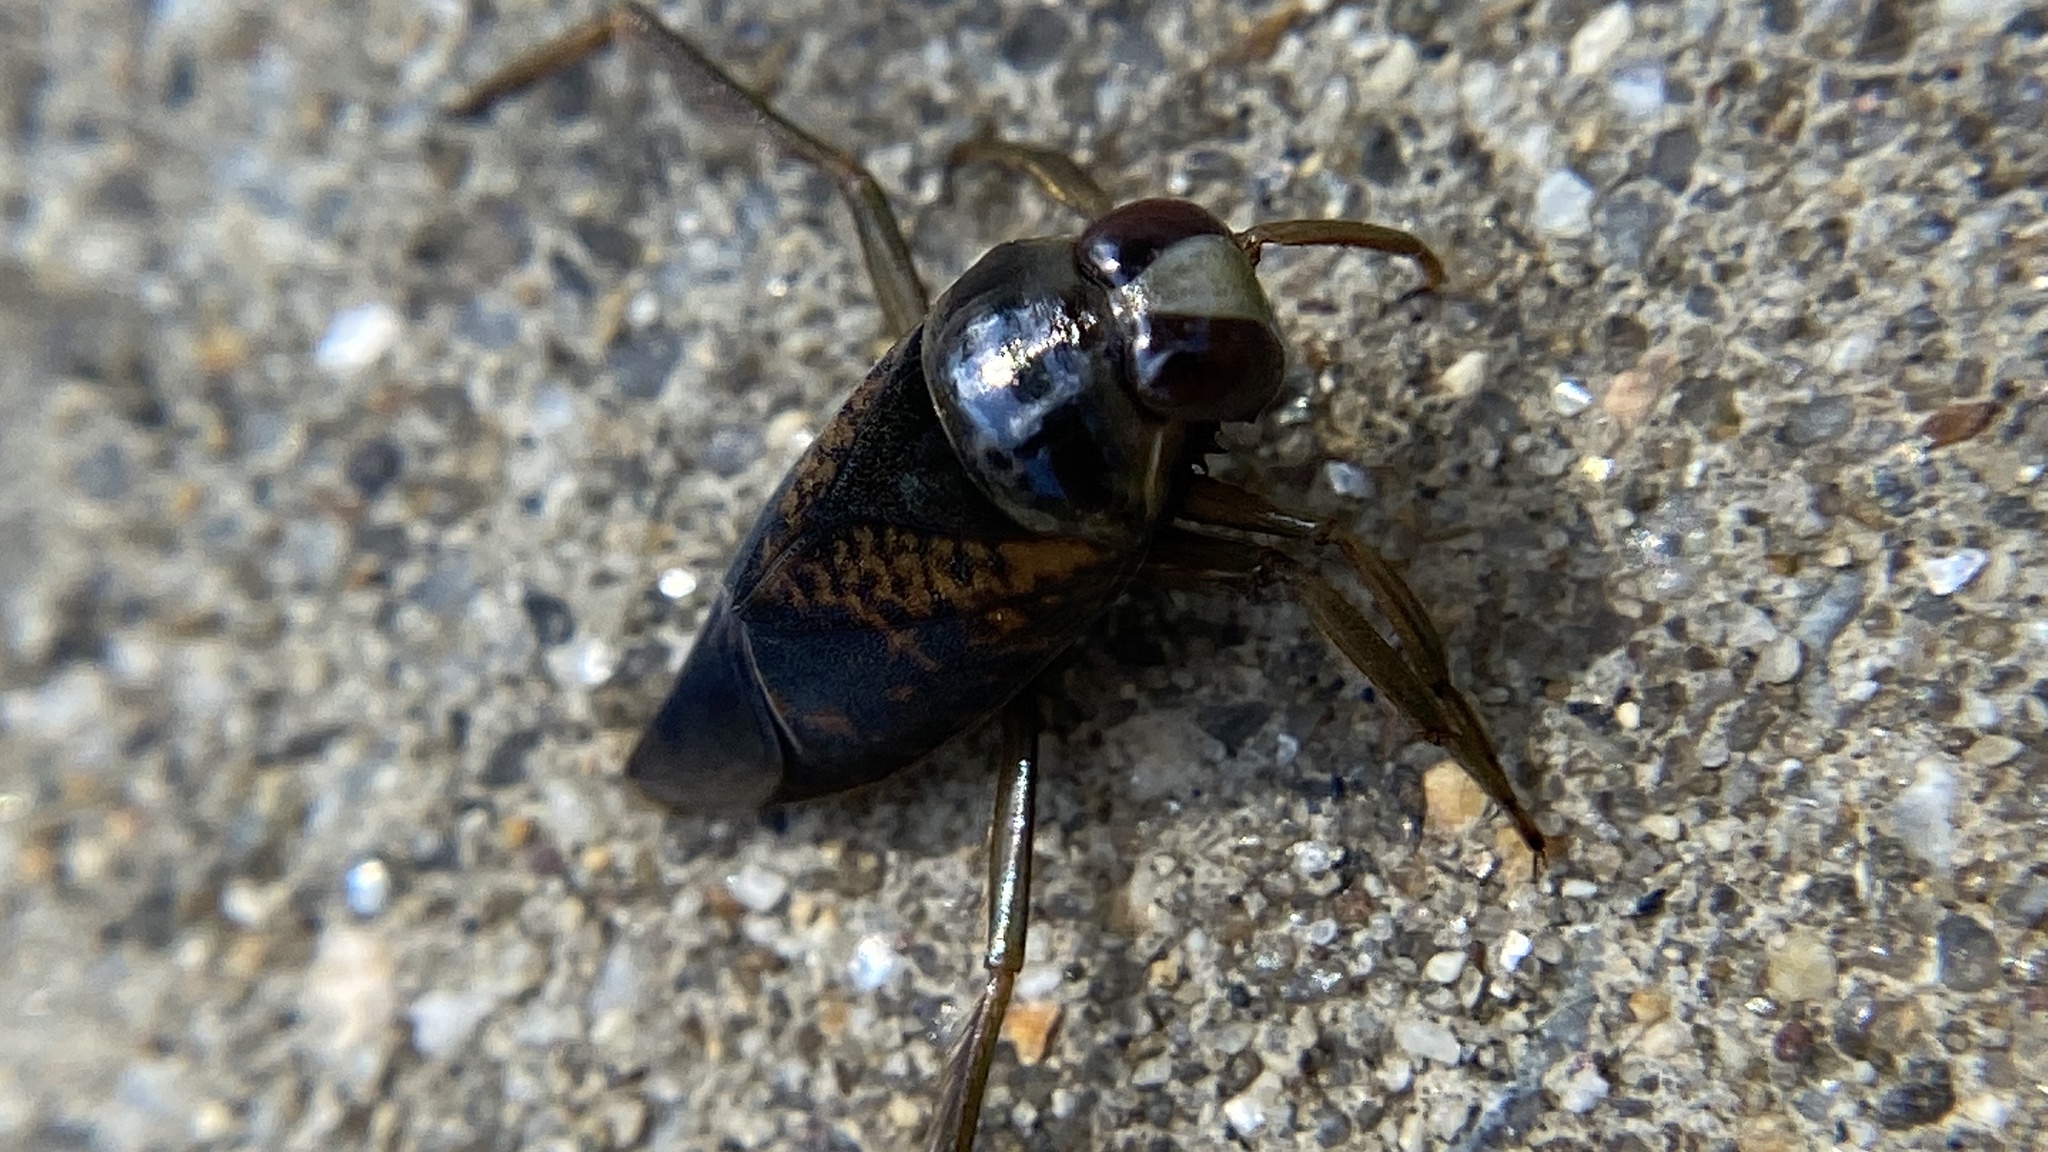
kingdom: Animalia
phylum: Arthropoda
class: Insecta
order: Hemiptera
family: Notonectidae
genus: Notonecta
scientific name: Notonecta irrorata
